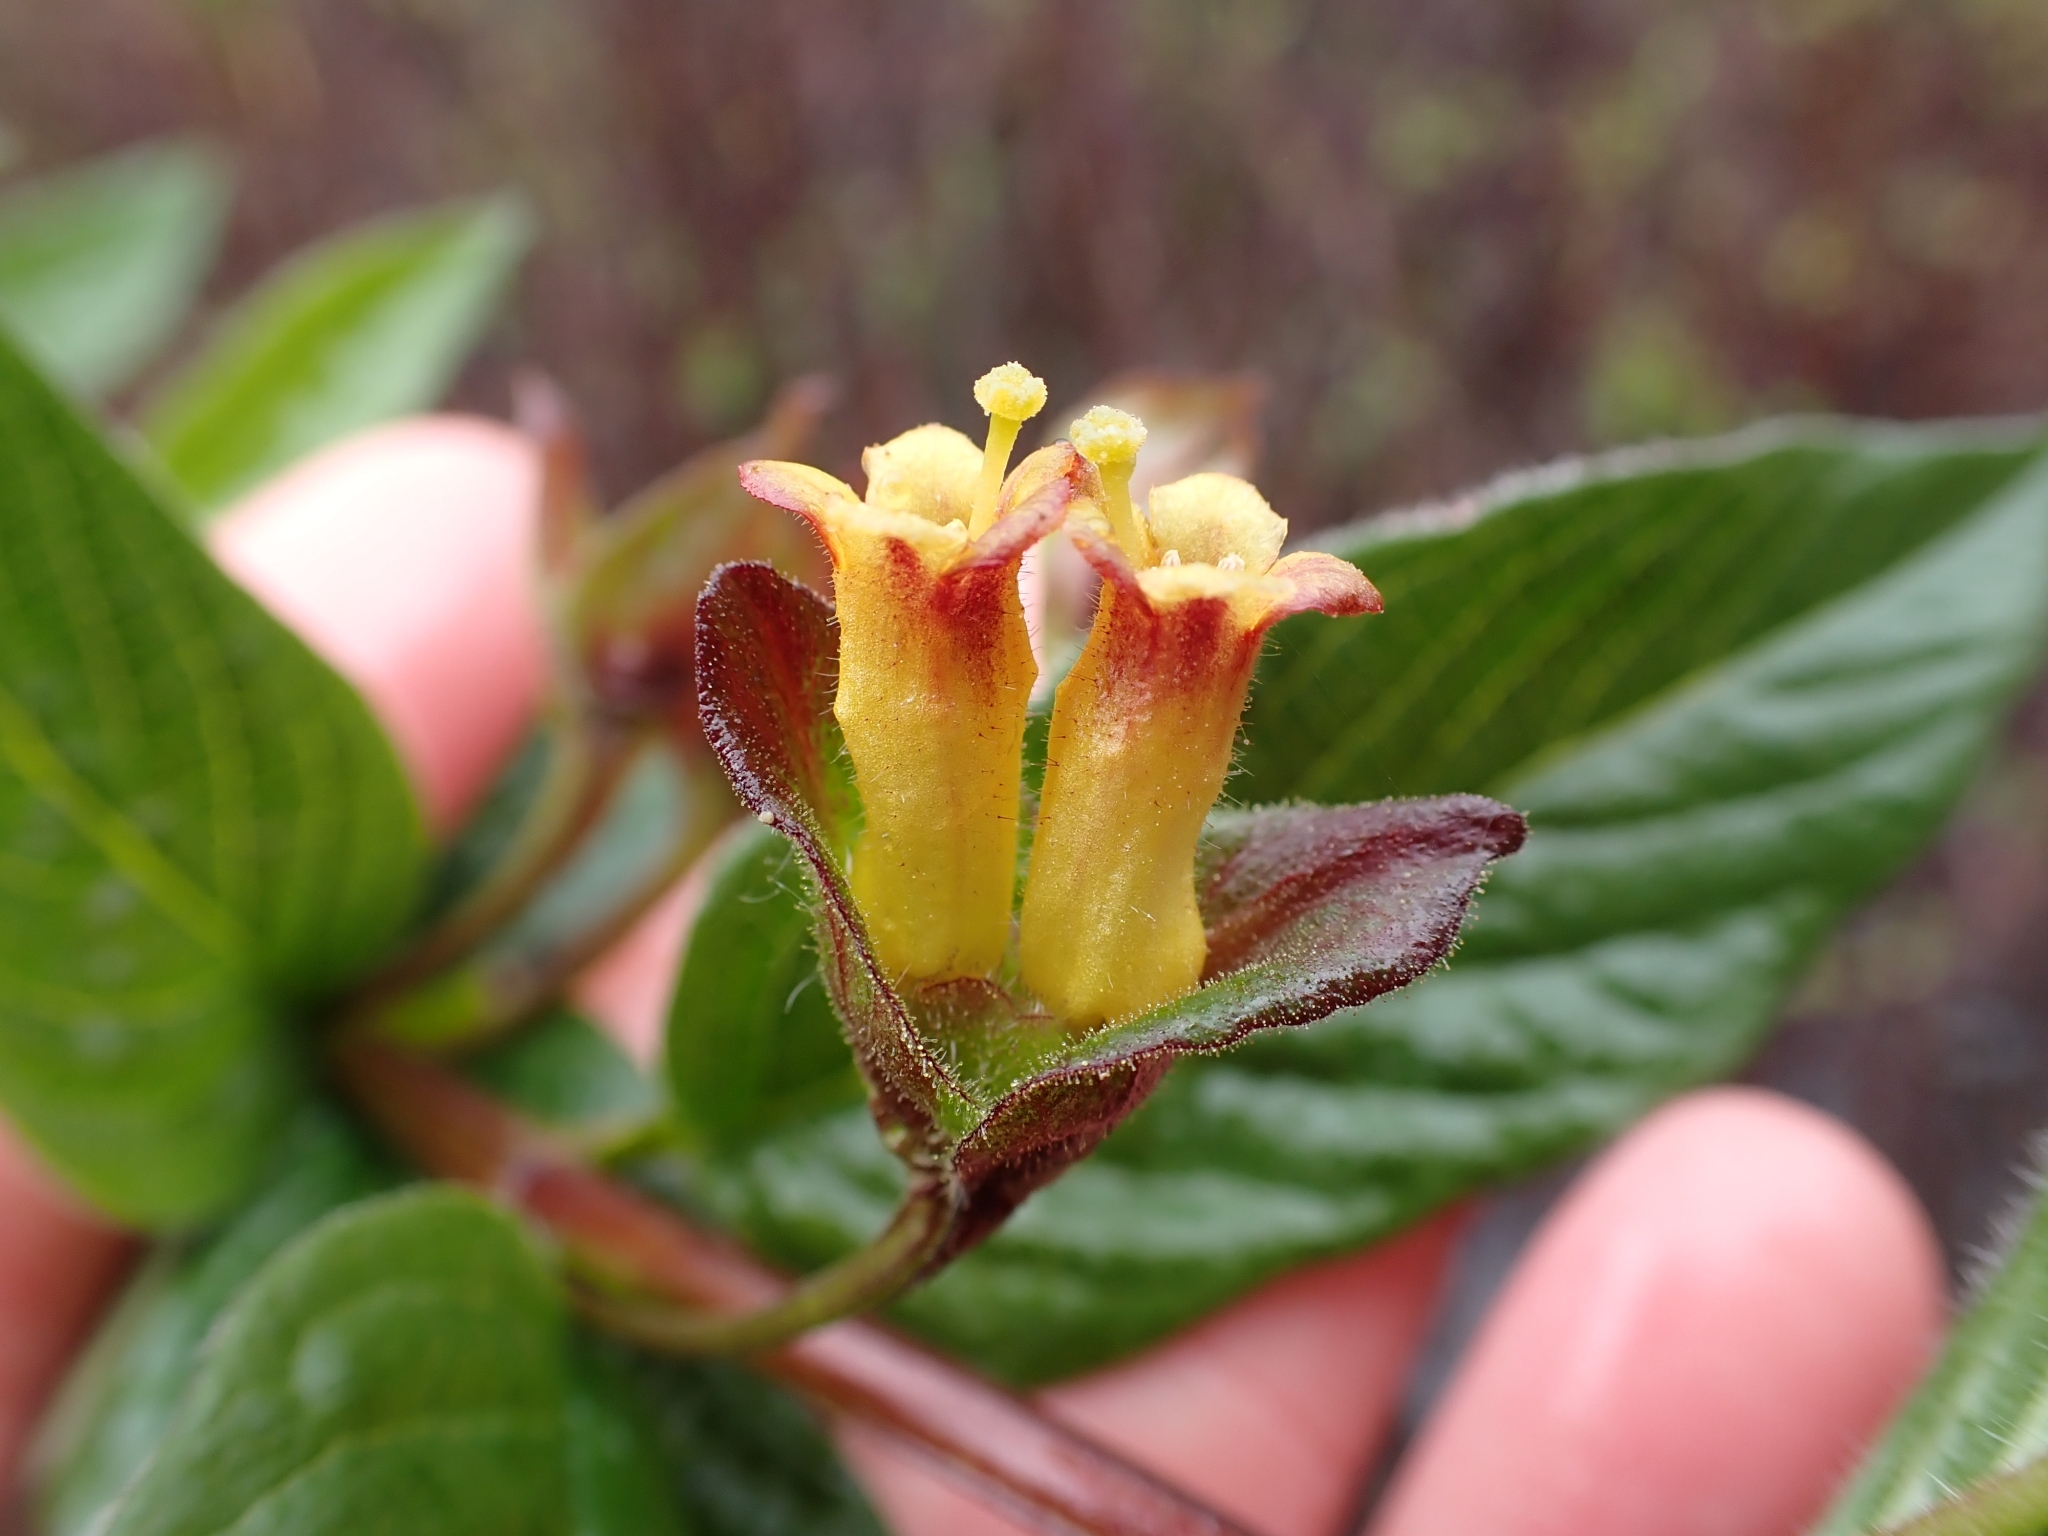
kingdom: Plantae
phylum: Tracheophyta
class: Magnoliopsida
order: Dipsacales
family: Caprifoliaceae
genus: Lonicera
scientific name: Lonicera involucrata
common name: Californian honeysuckle
